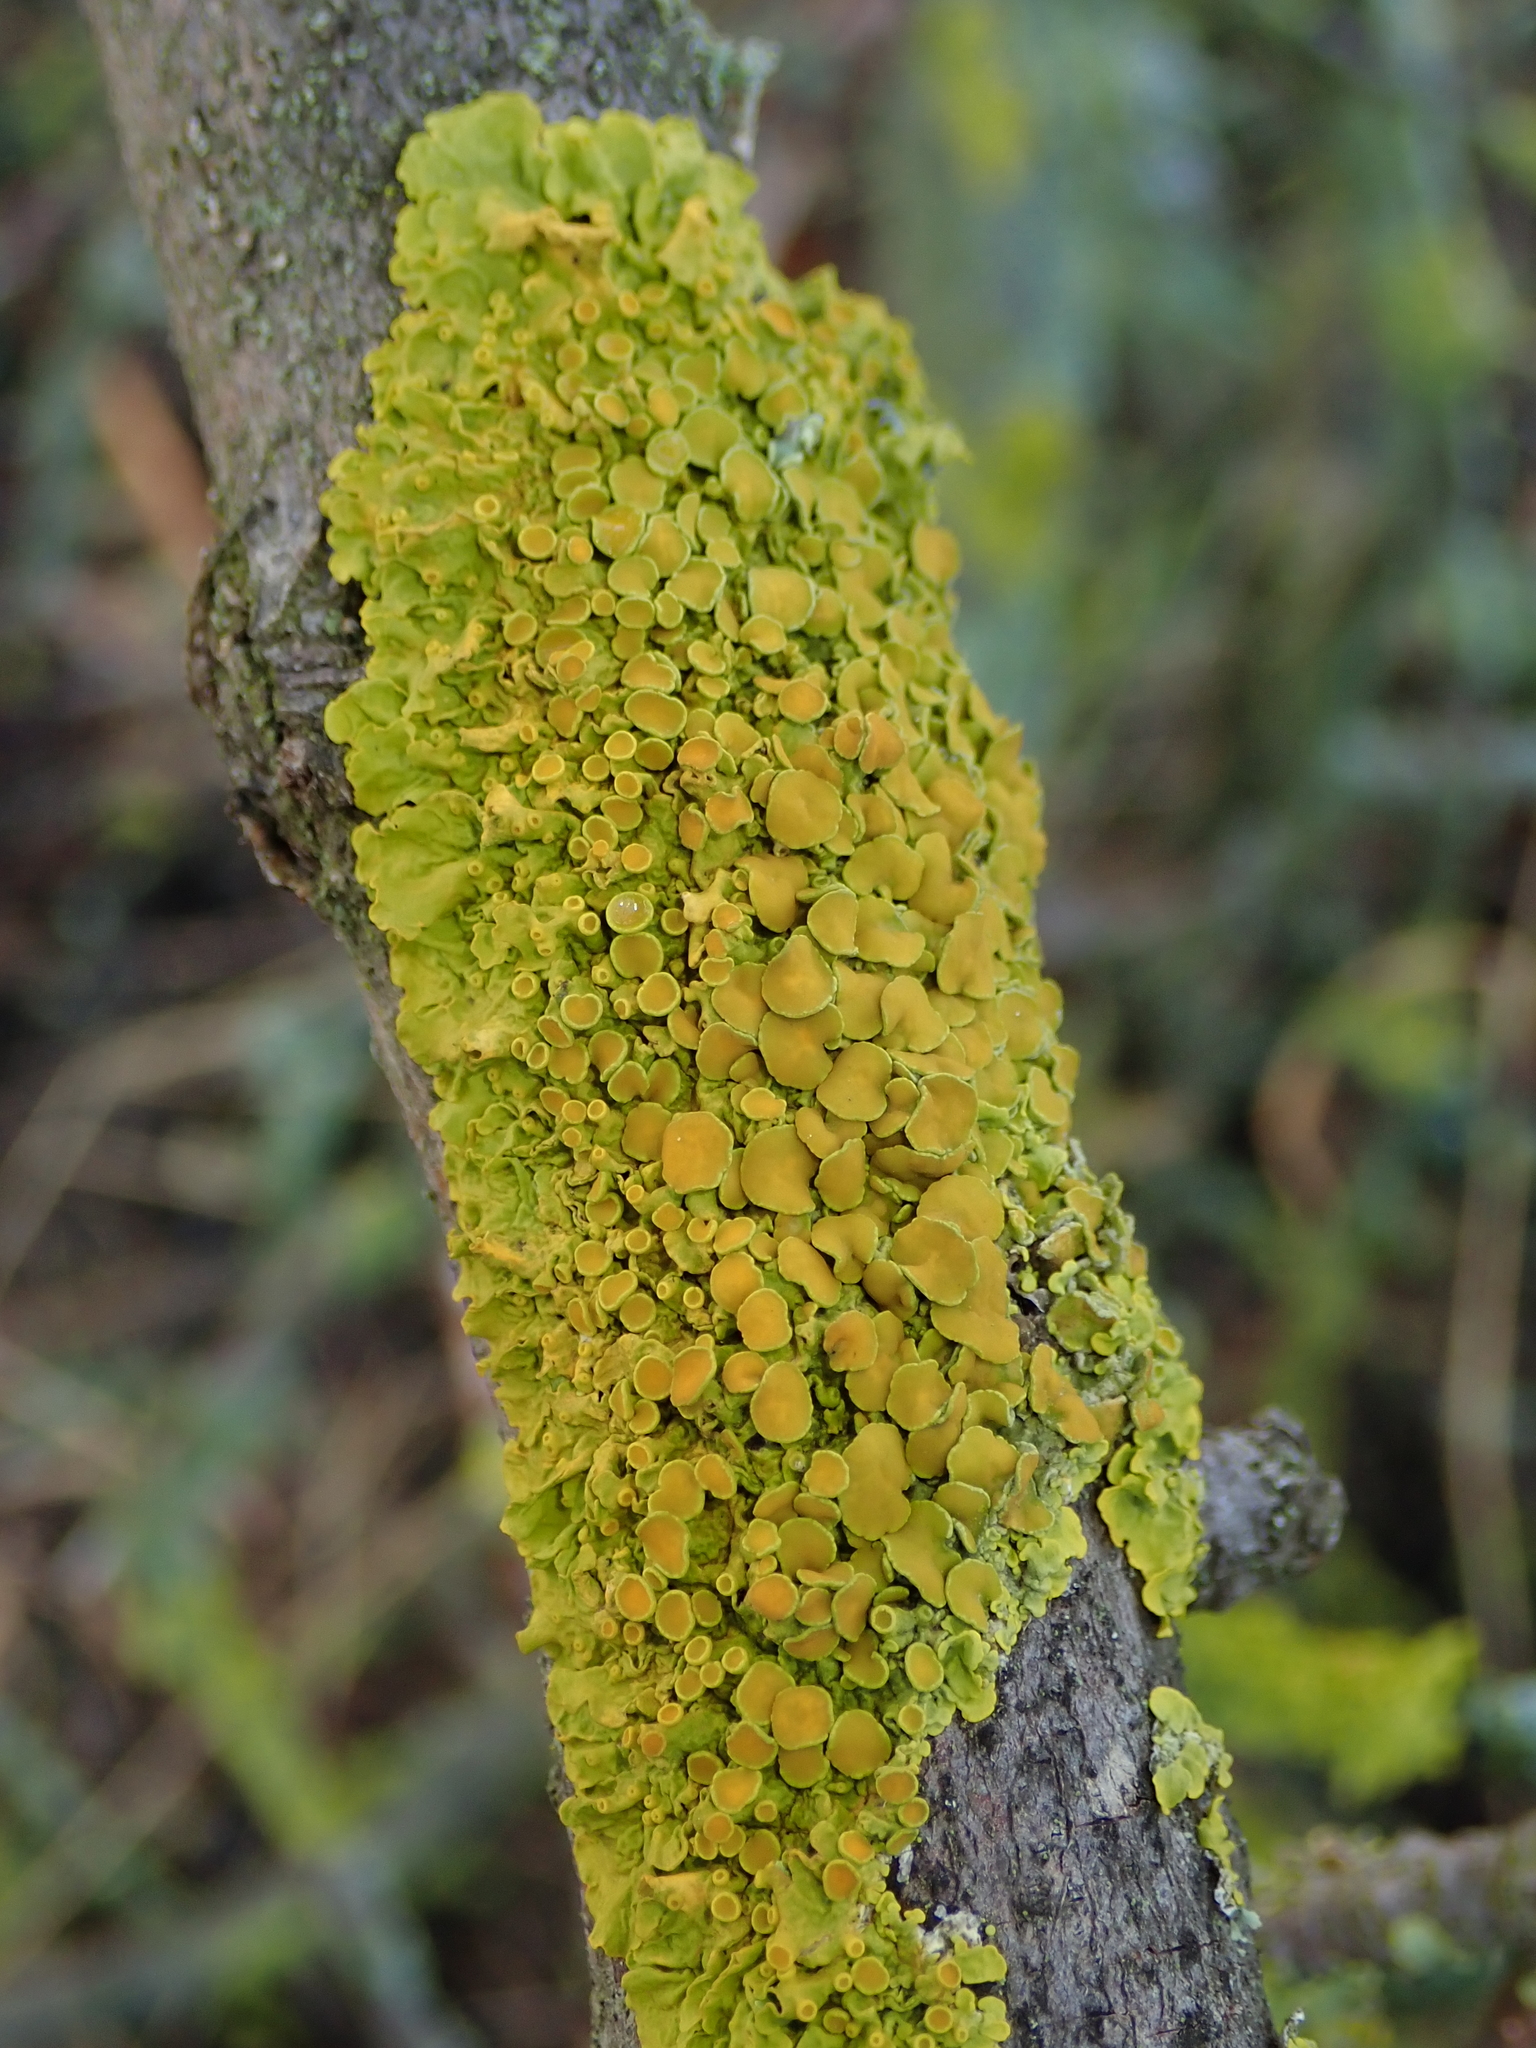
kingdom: Fungi
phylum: Ascomycota
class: Lecanoromycetes
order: Teloschistales
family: Teloschistaceae
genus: Xanthoria
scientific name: Xanthoria parietina
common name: Common orange lichen
